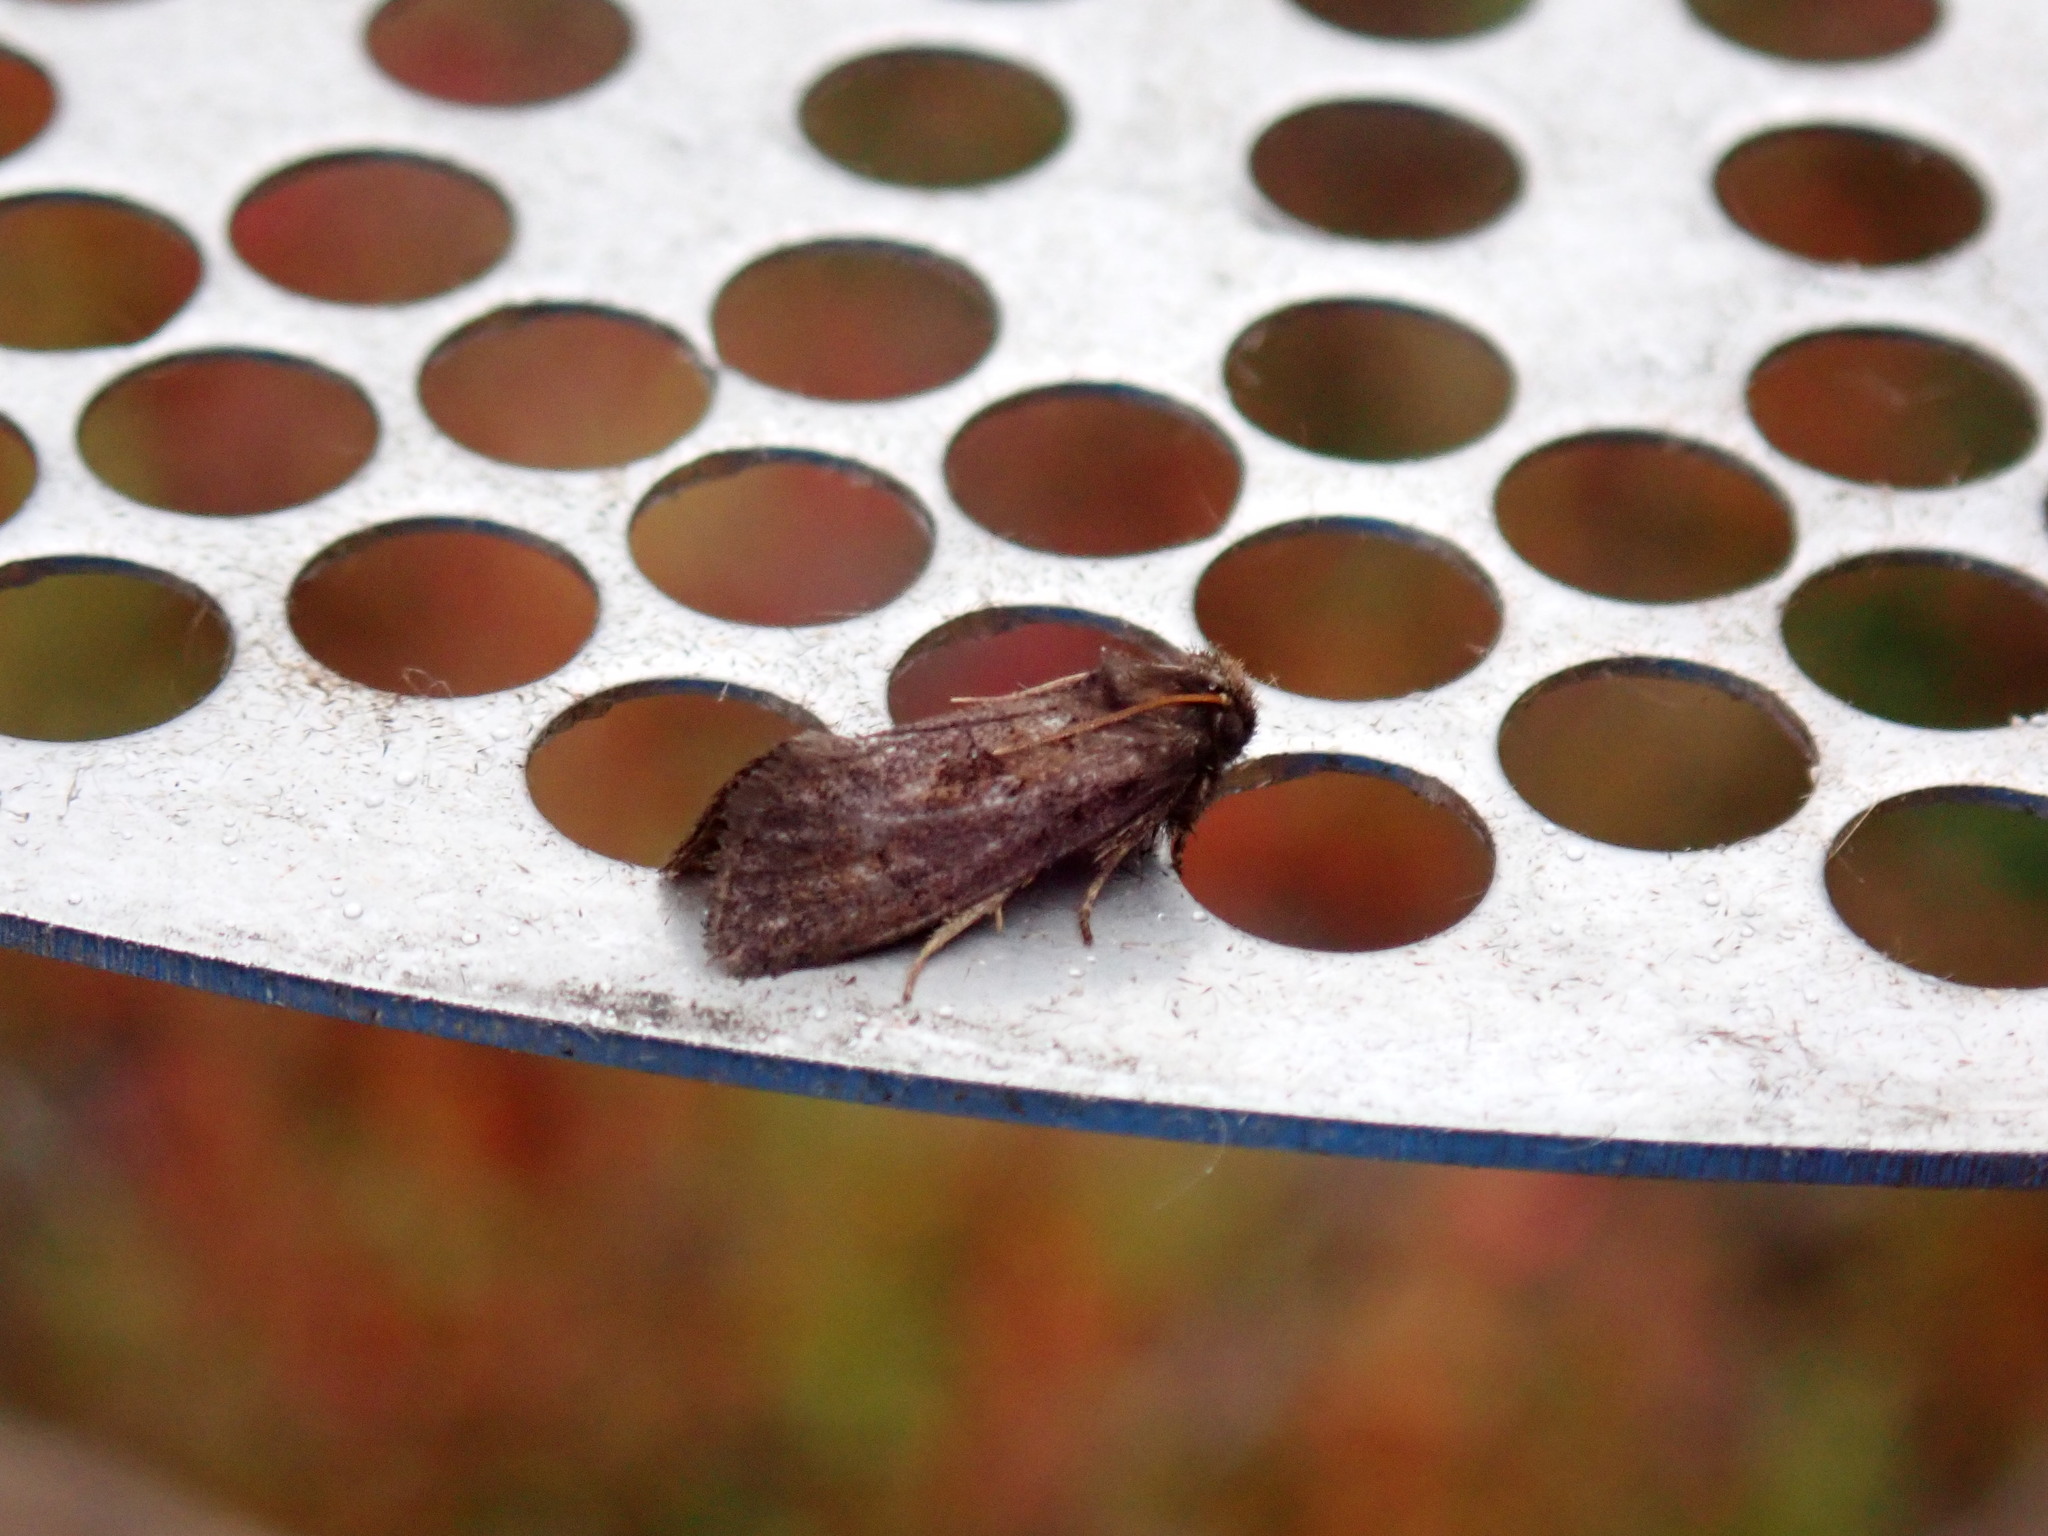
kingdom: Animalia
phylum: Arthropoda
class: Insecta
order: Lepidoptera
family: Tineidae
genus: Acrolophus
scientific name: Acrolophus mora
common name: Dark acrolophus
